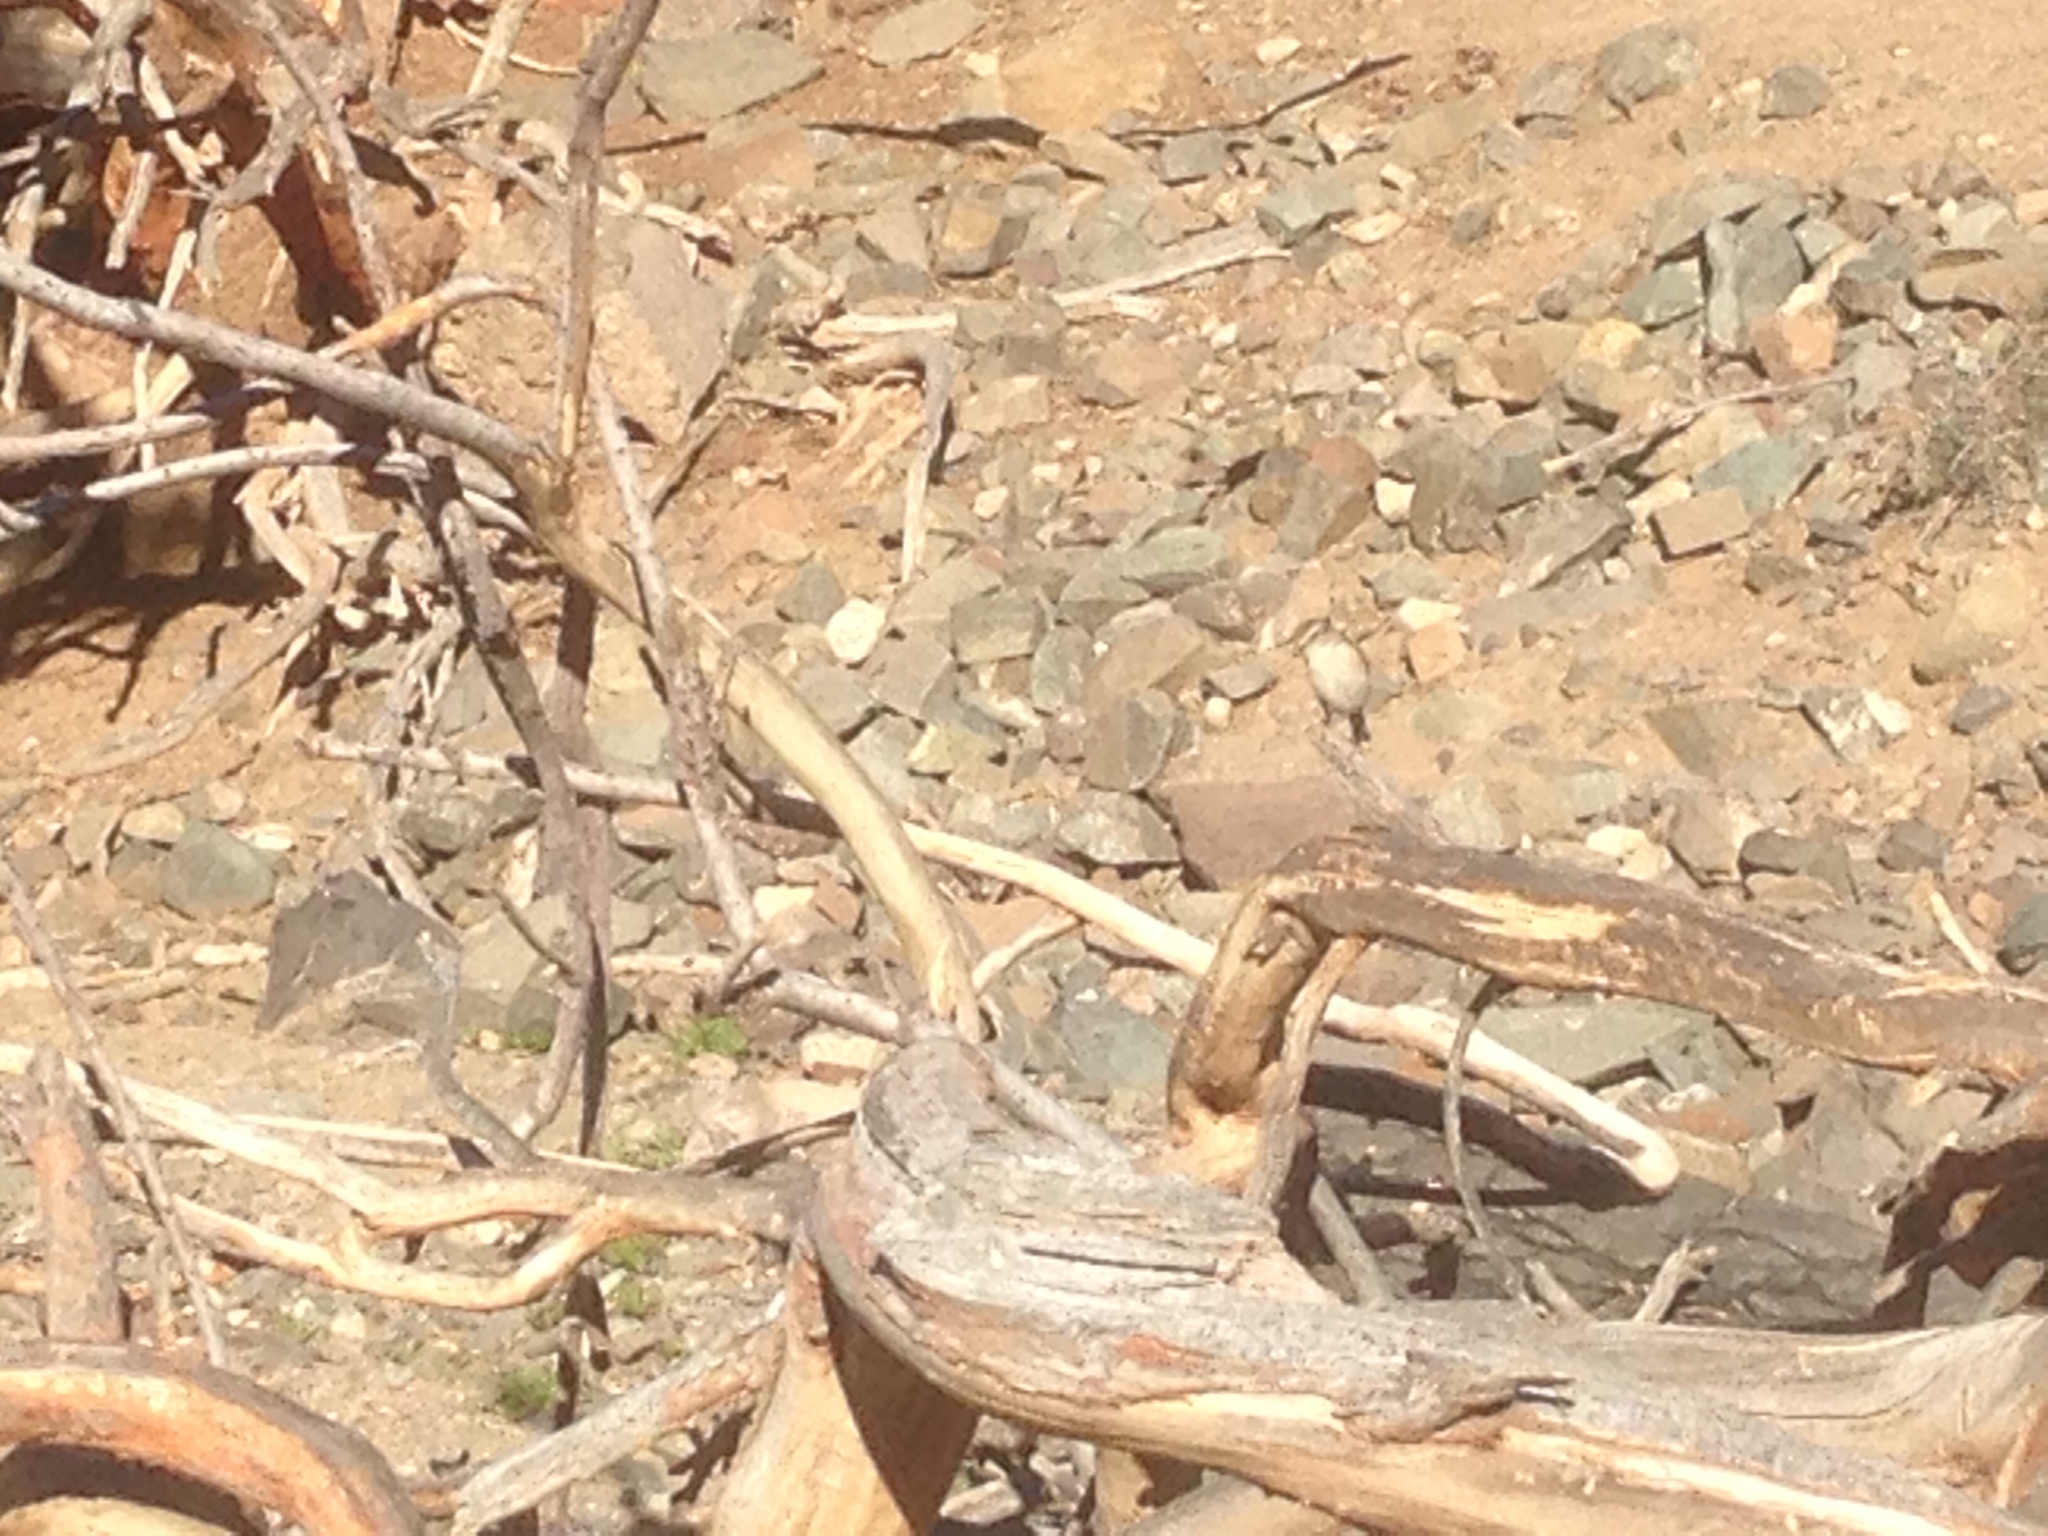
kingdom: Animalia
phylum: Chordata
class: Aves
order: Passeriformes
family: Muscicapidae
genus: Saxicola
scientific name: Saxicola dacotiae
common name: Canary islands stonechat
